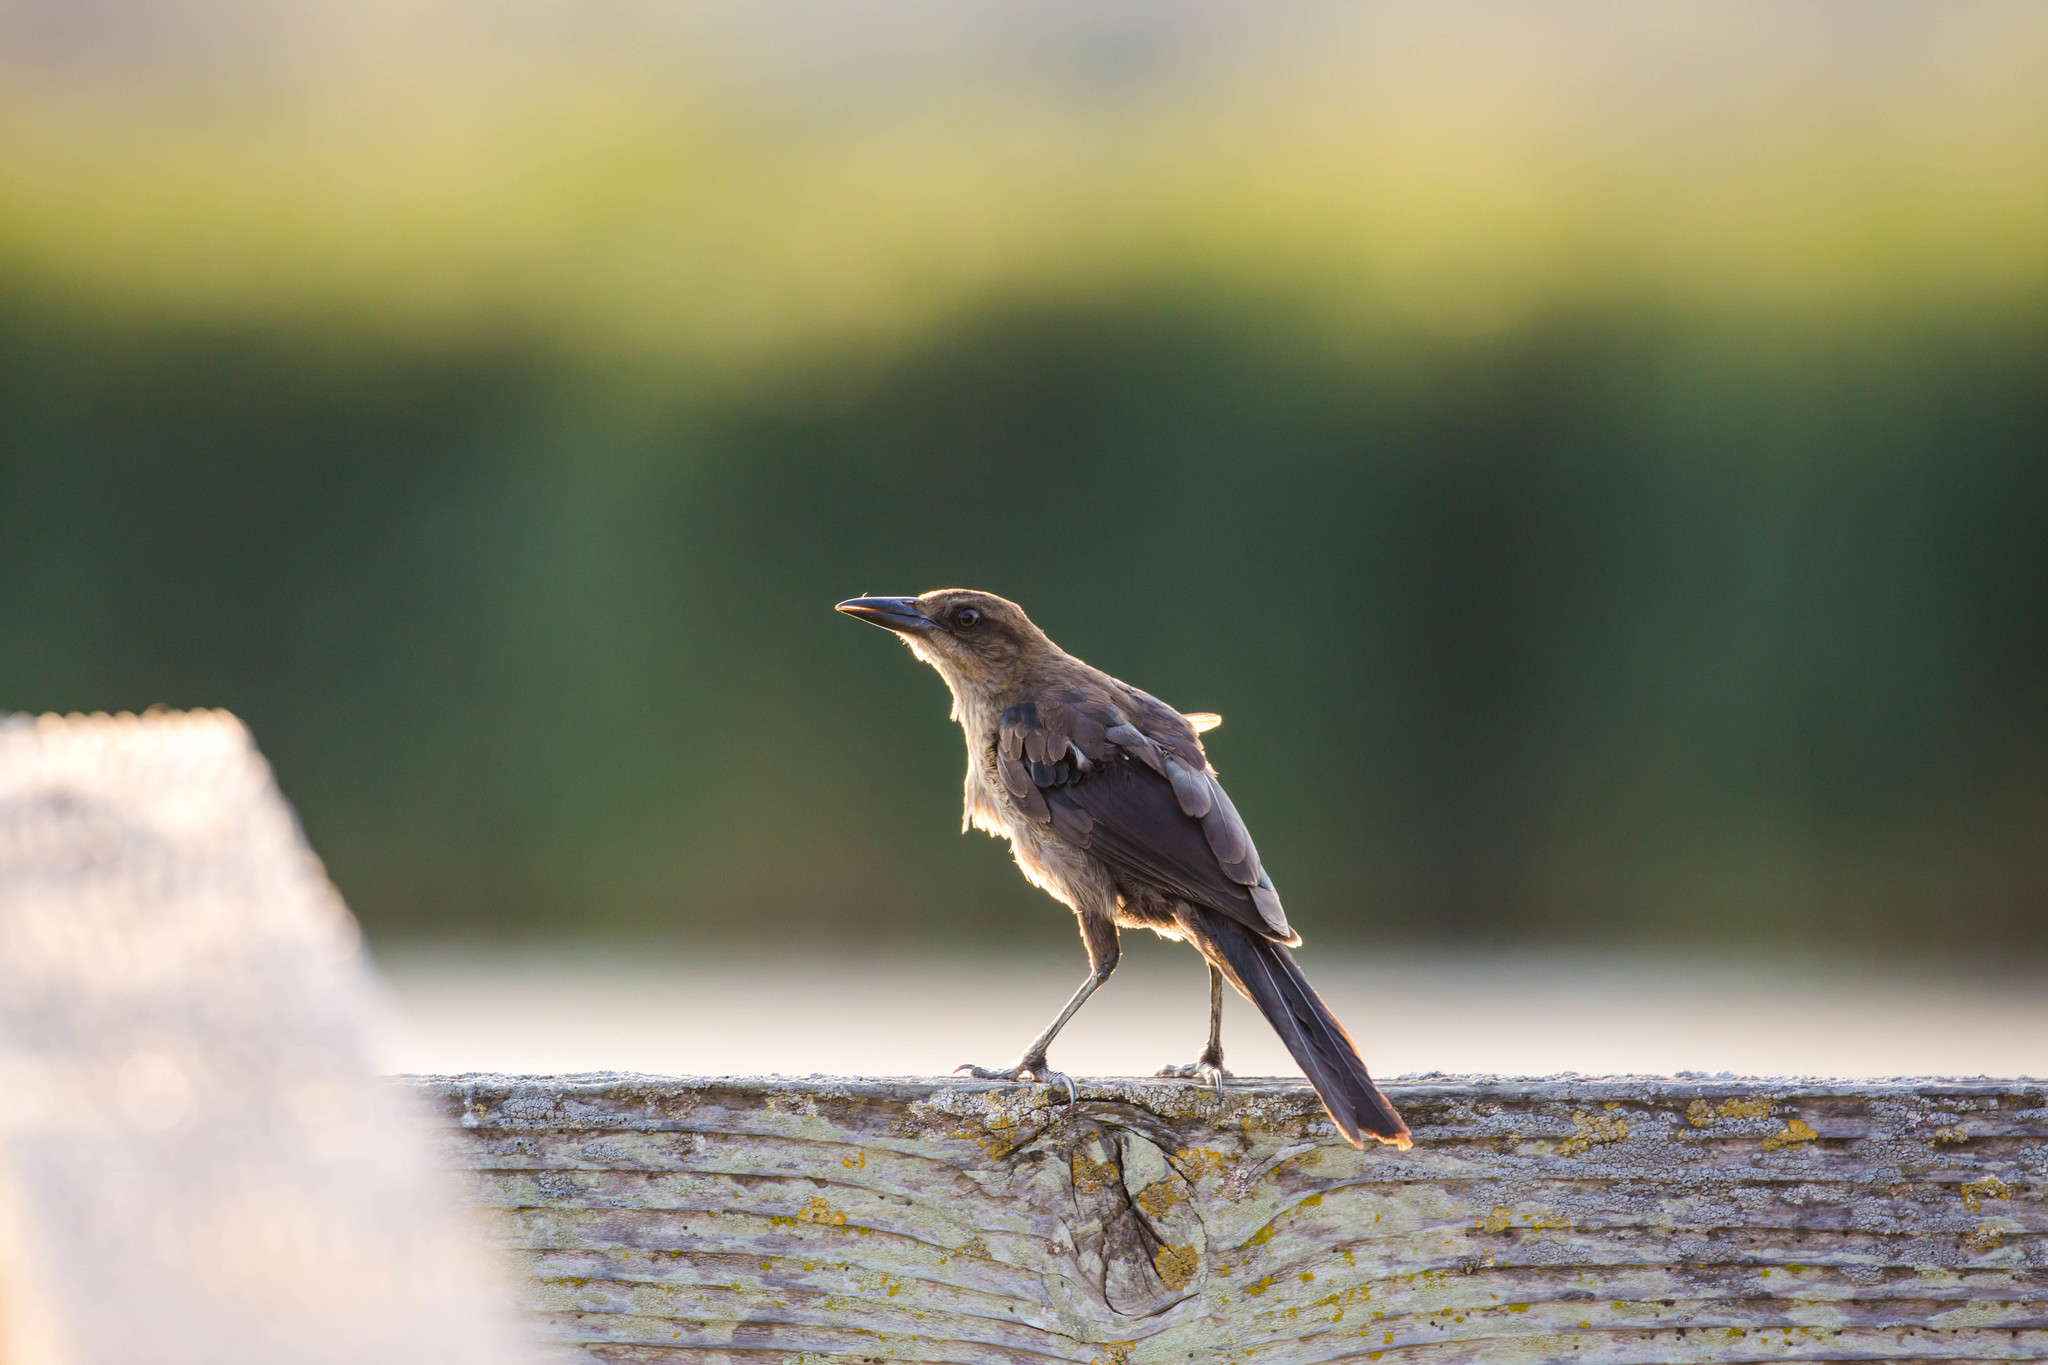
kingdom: Animalia
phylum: Chordata
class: Aves
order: Passeriformes
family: Icteridae
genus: Quiscalus
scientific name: Quiscalus mexicanus
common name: Great-tailed grackle
